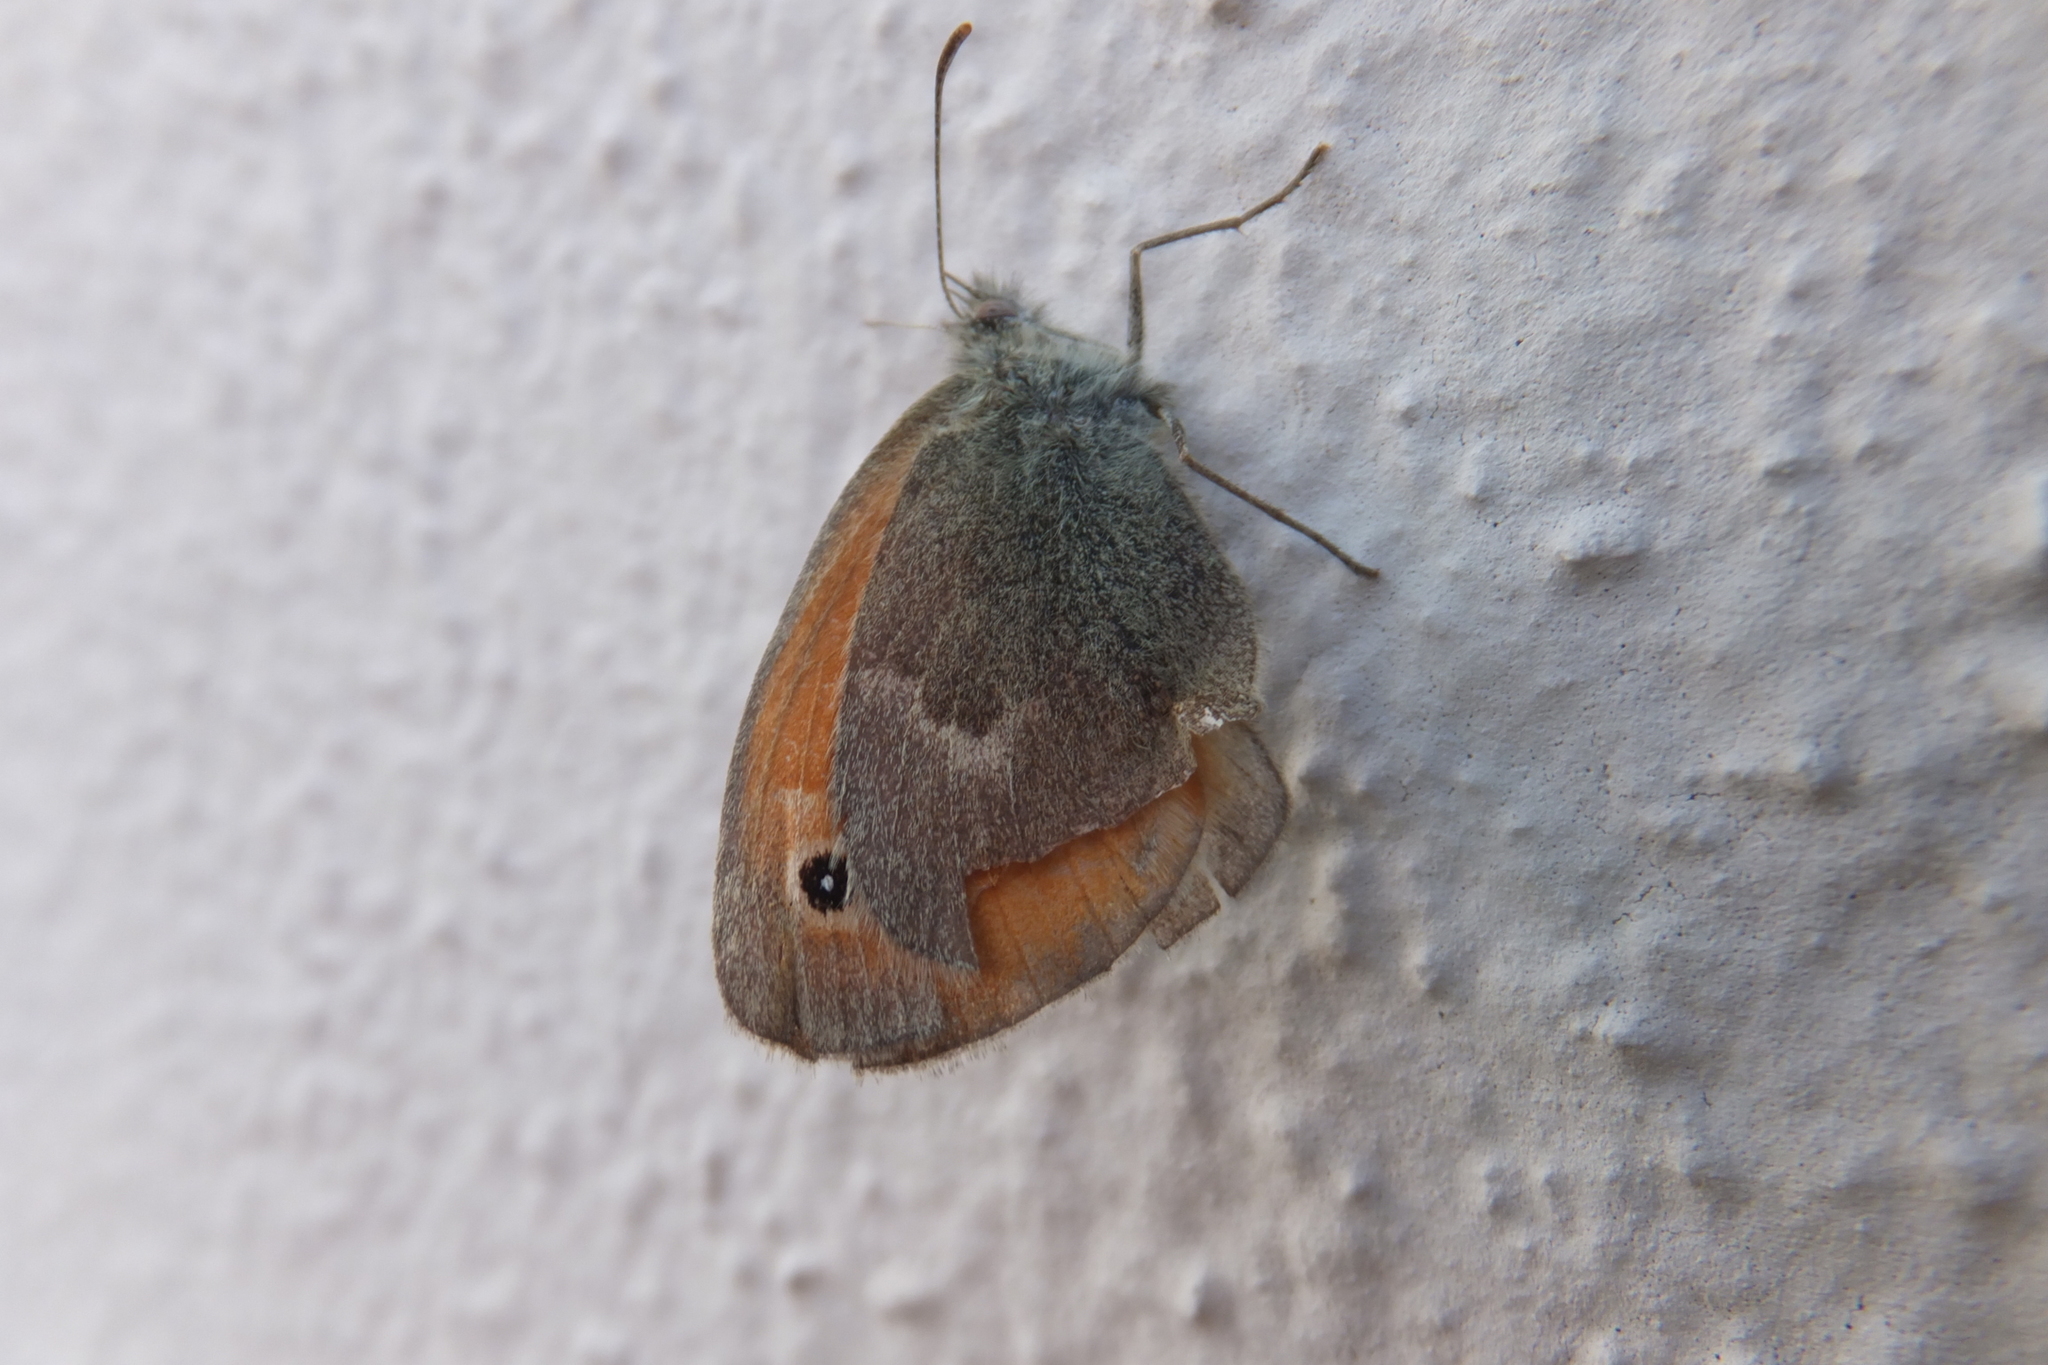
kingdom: Animalia
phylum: Arthropoda
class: Insecta
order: Lepidoptera
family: Nymphalidae
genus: Coenonympha
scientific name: Coenonympha pamphilus
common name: Small heath
